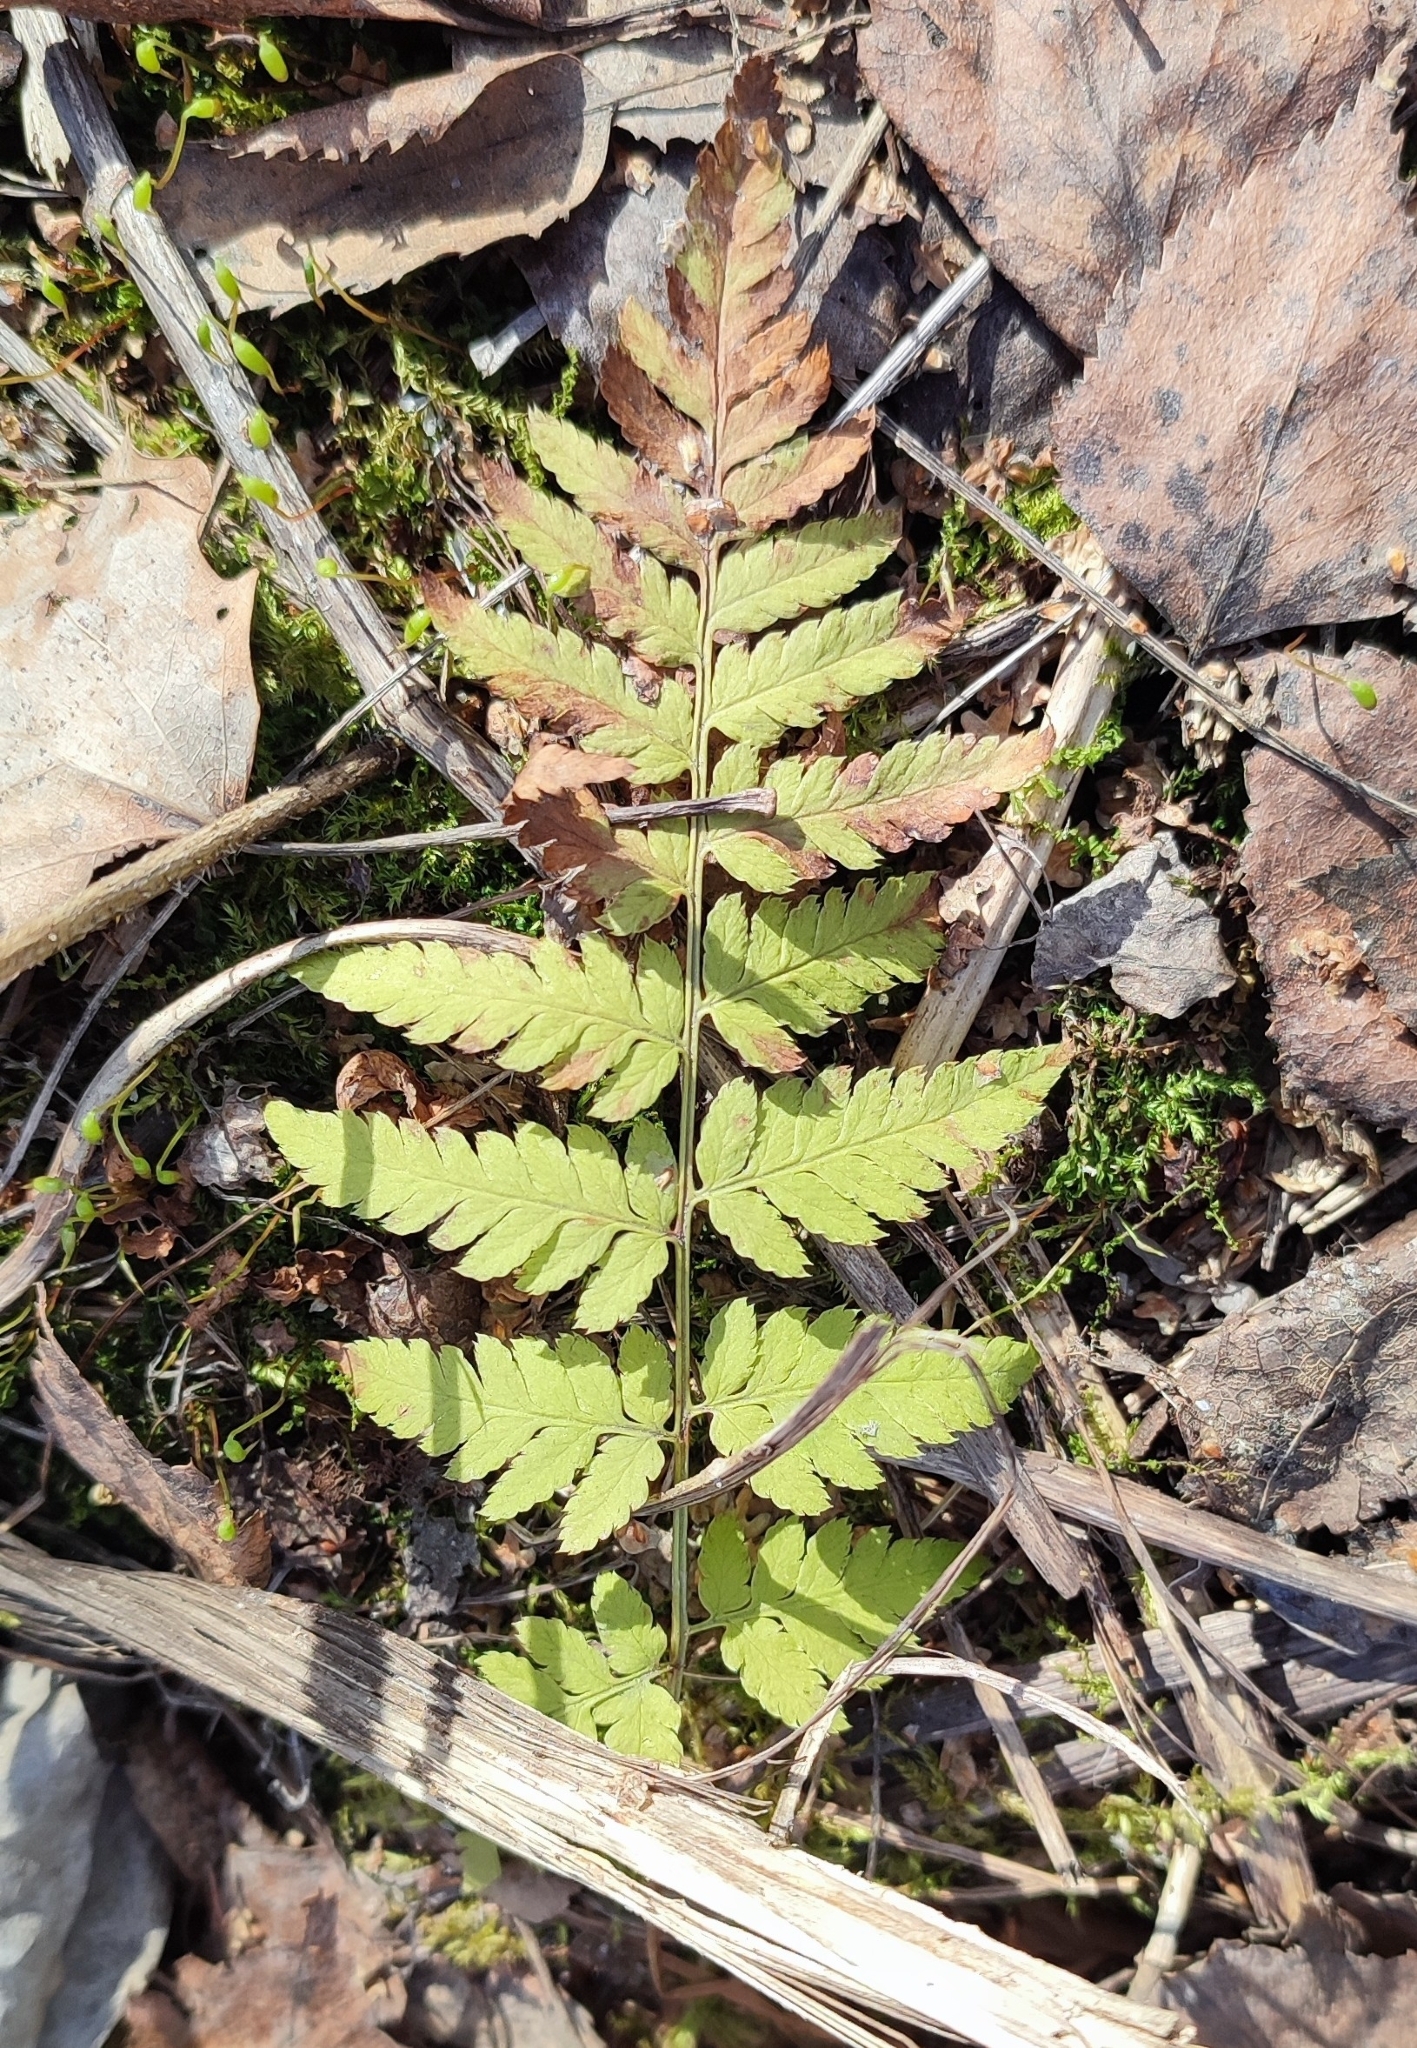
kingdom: Plantae
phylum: Tracheophyta
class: Polypodiopsida
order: Polypodiales
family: Dryopteridaceae
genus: Dryopteris
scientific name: Dryopteris carthusiana
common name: Narrow buckler-fern
